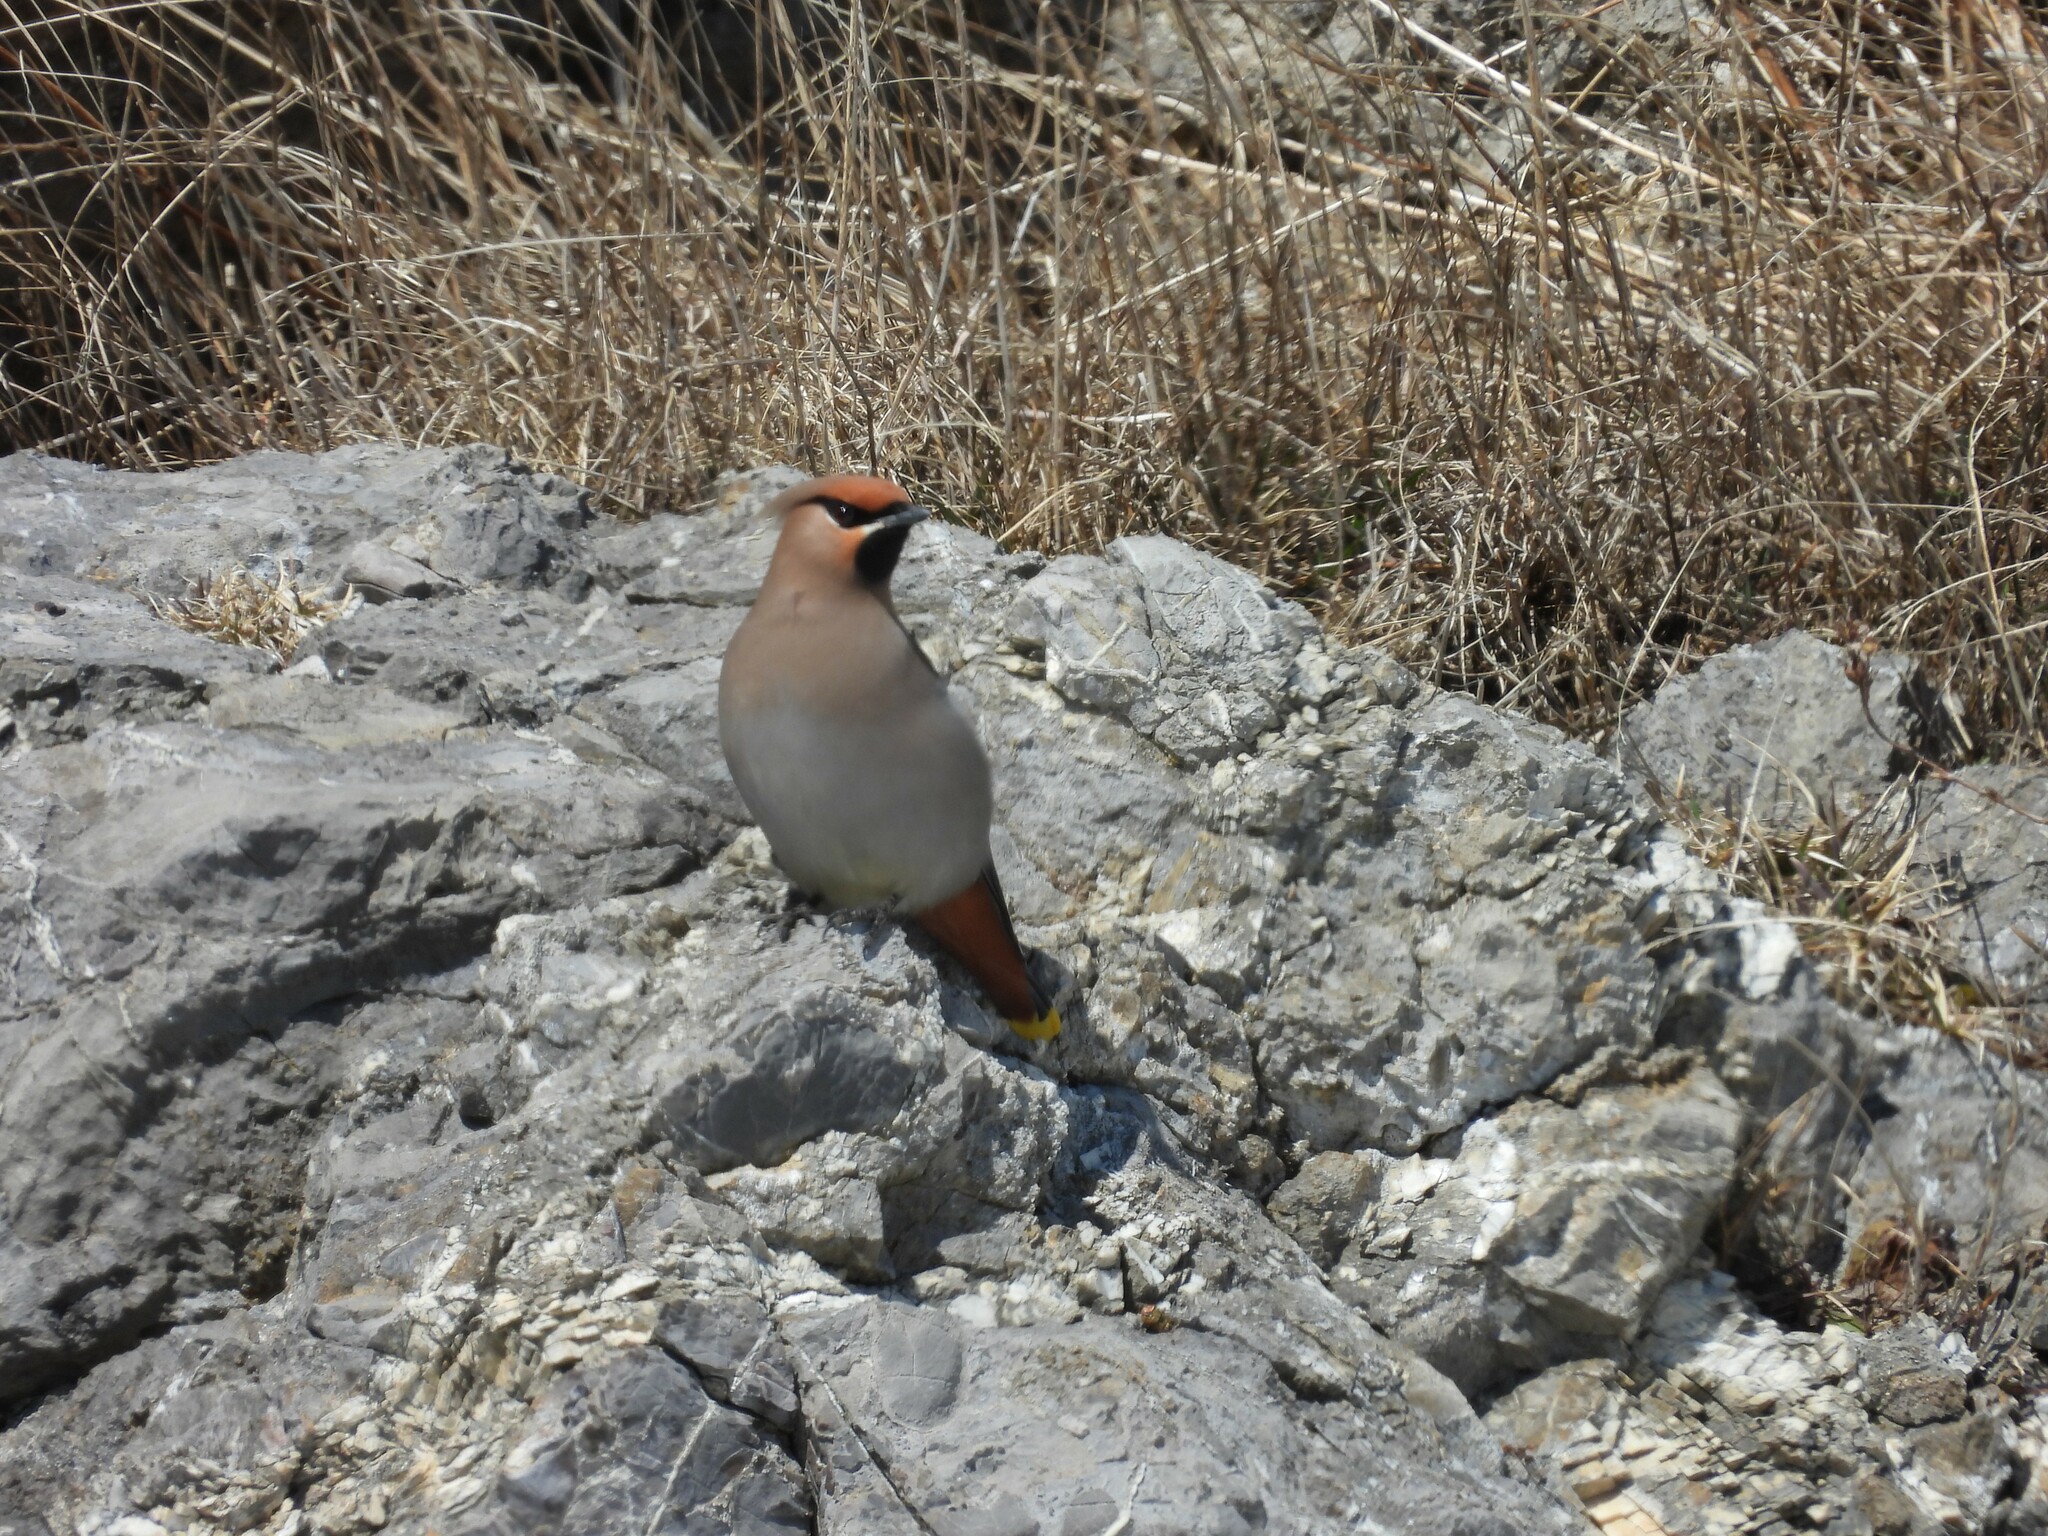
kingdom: Animalia
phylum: Chordata
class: Aves
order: Passeriformes
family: Bombycillidae
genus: Bombycilla
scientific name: Bombycilla garrulus
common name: Bohemian waxwing
